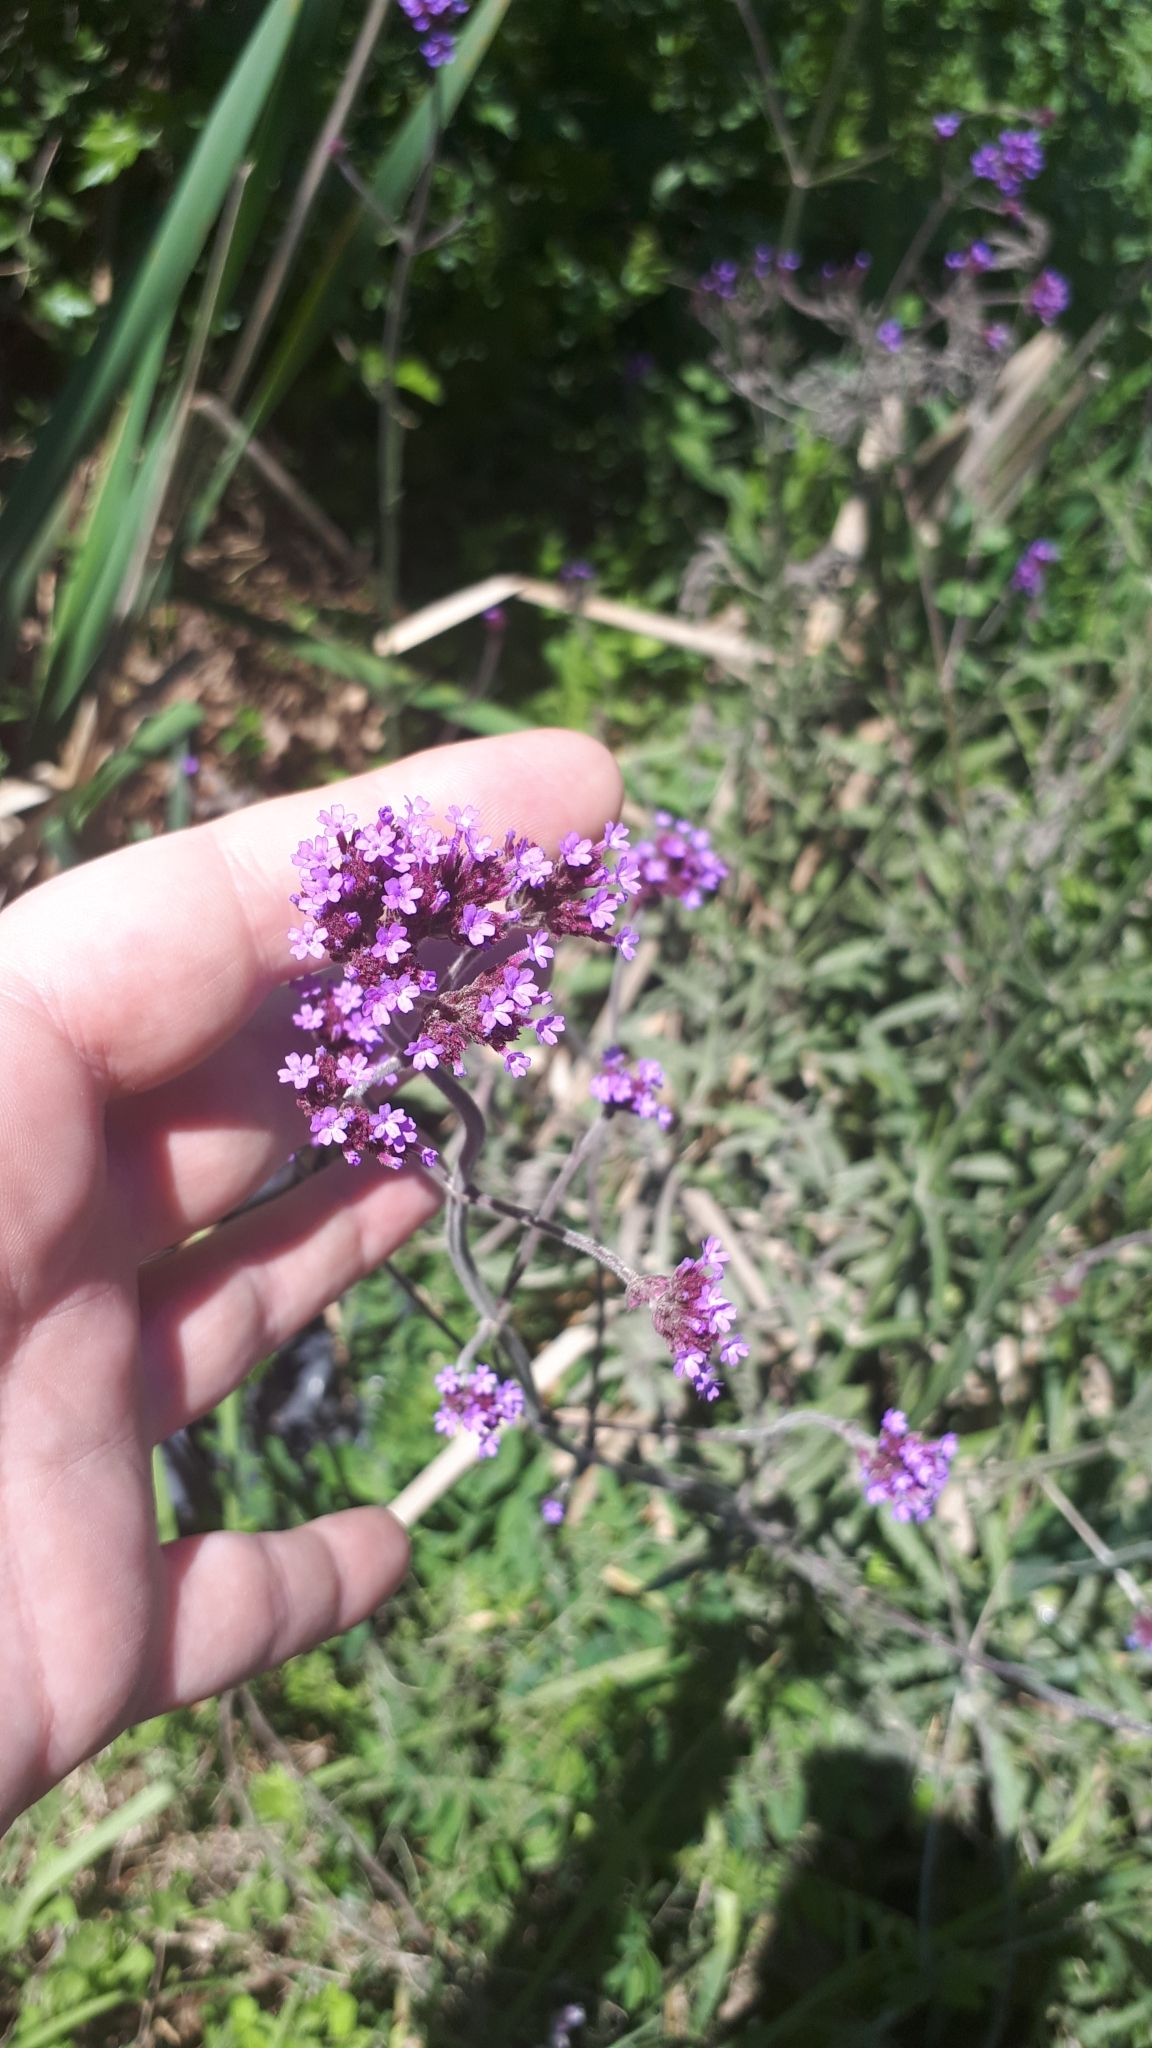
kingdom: Plantae
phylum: Tracheophyta
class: Magnoliopsida
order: Lamiales
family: Verbenaceae
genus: Verbena
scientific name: Verbena bonariensis
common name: Purpletop vervain
